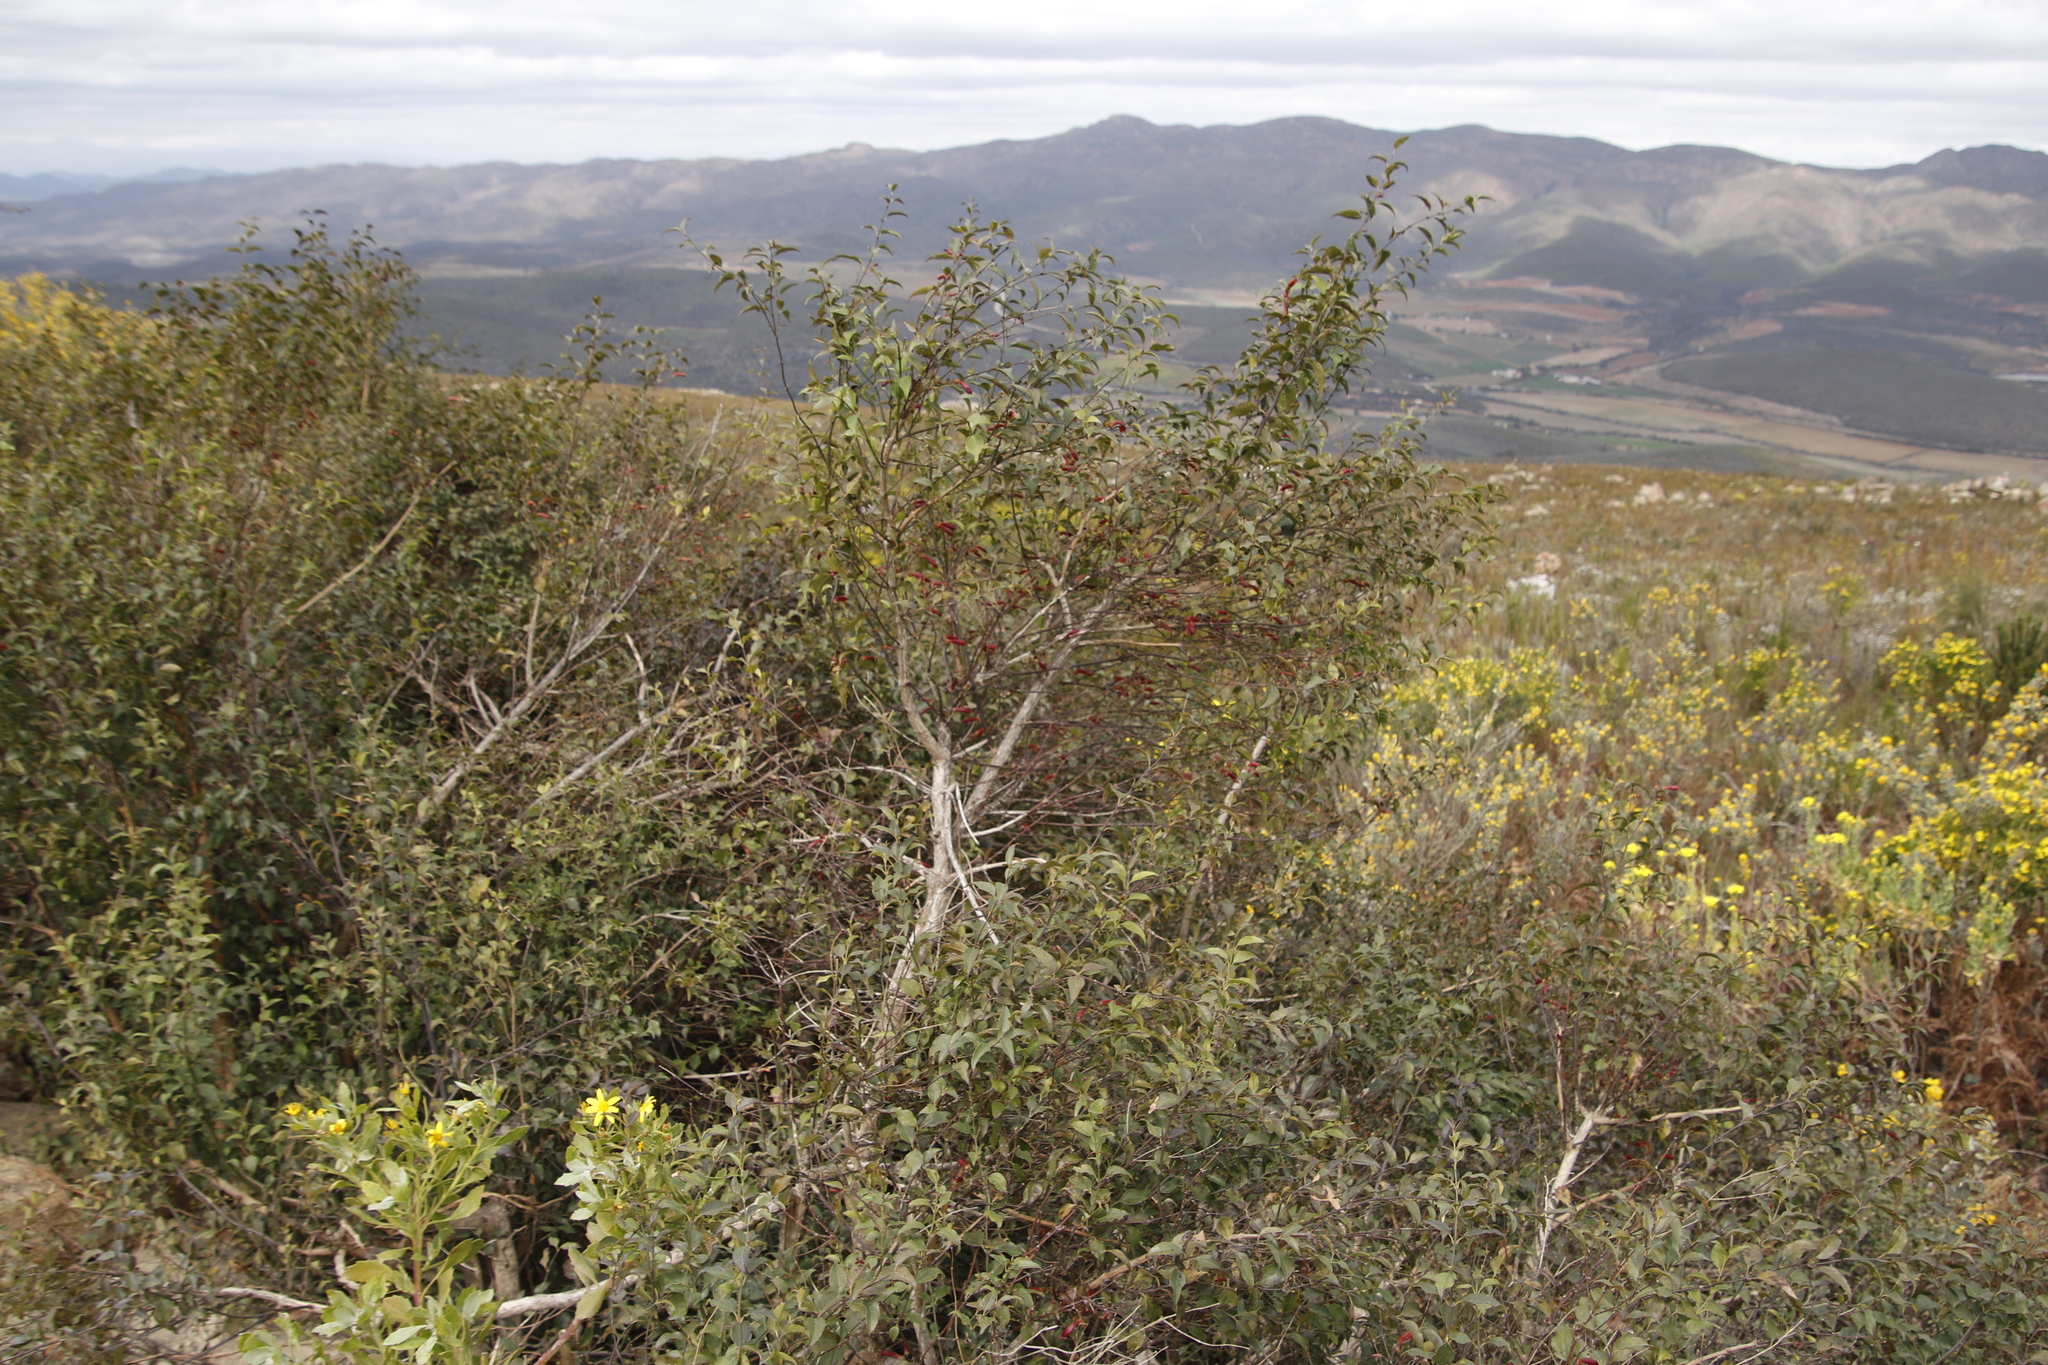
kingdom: Plantae
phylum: Tracheophyta
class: Magnoliopsida
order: Lamiales
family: Stilbaceae
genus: Halleria
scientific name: Halleria lucida
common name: Tree fuschia
